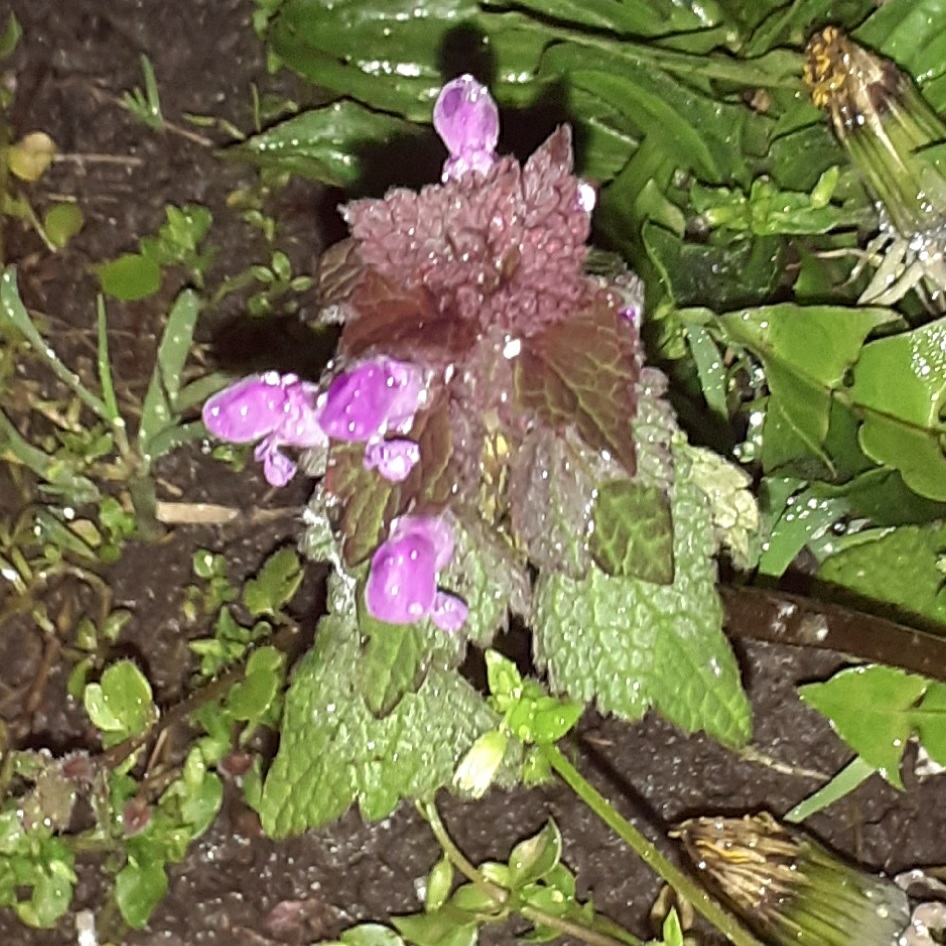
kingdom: Plantae
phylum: Tracheophyta
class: Magnoliopsida
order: Lamiales
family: Lamiaceae
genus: Lamium
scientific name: Lamium purpureum
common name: Red dead-nettle
